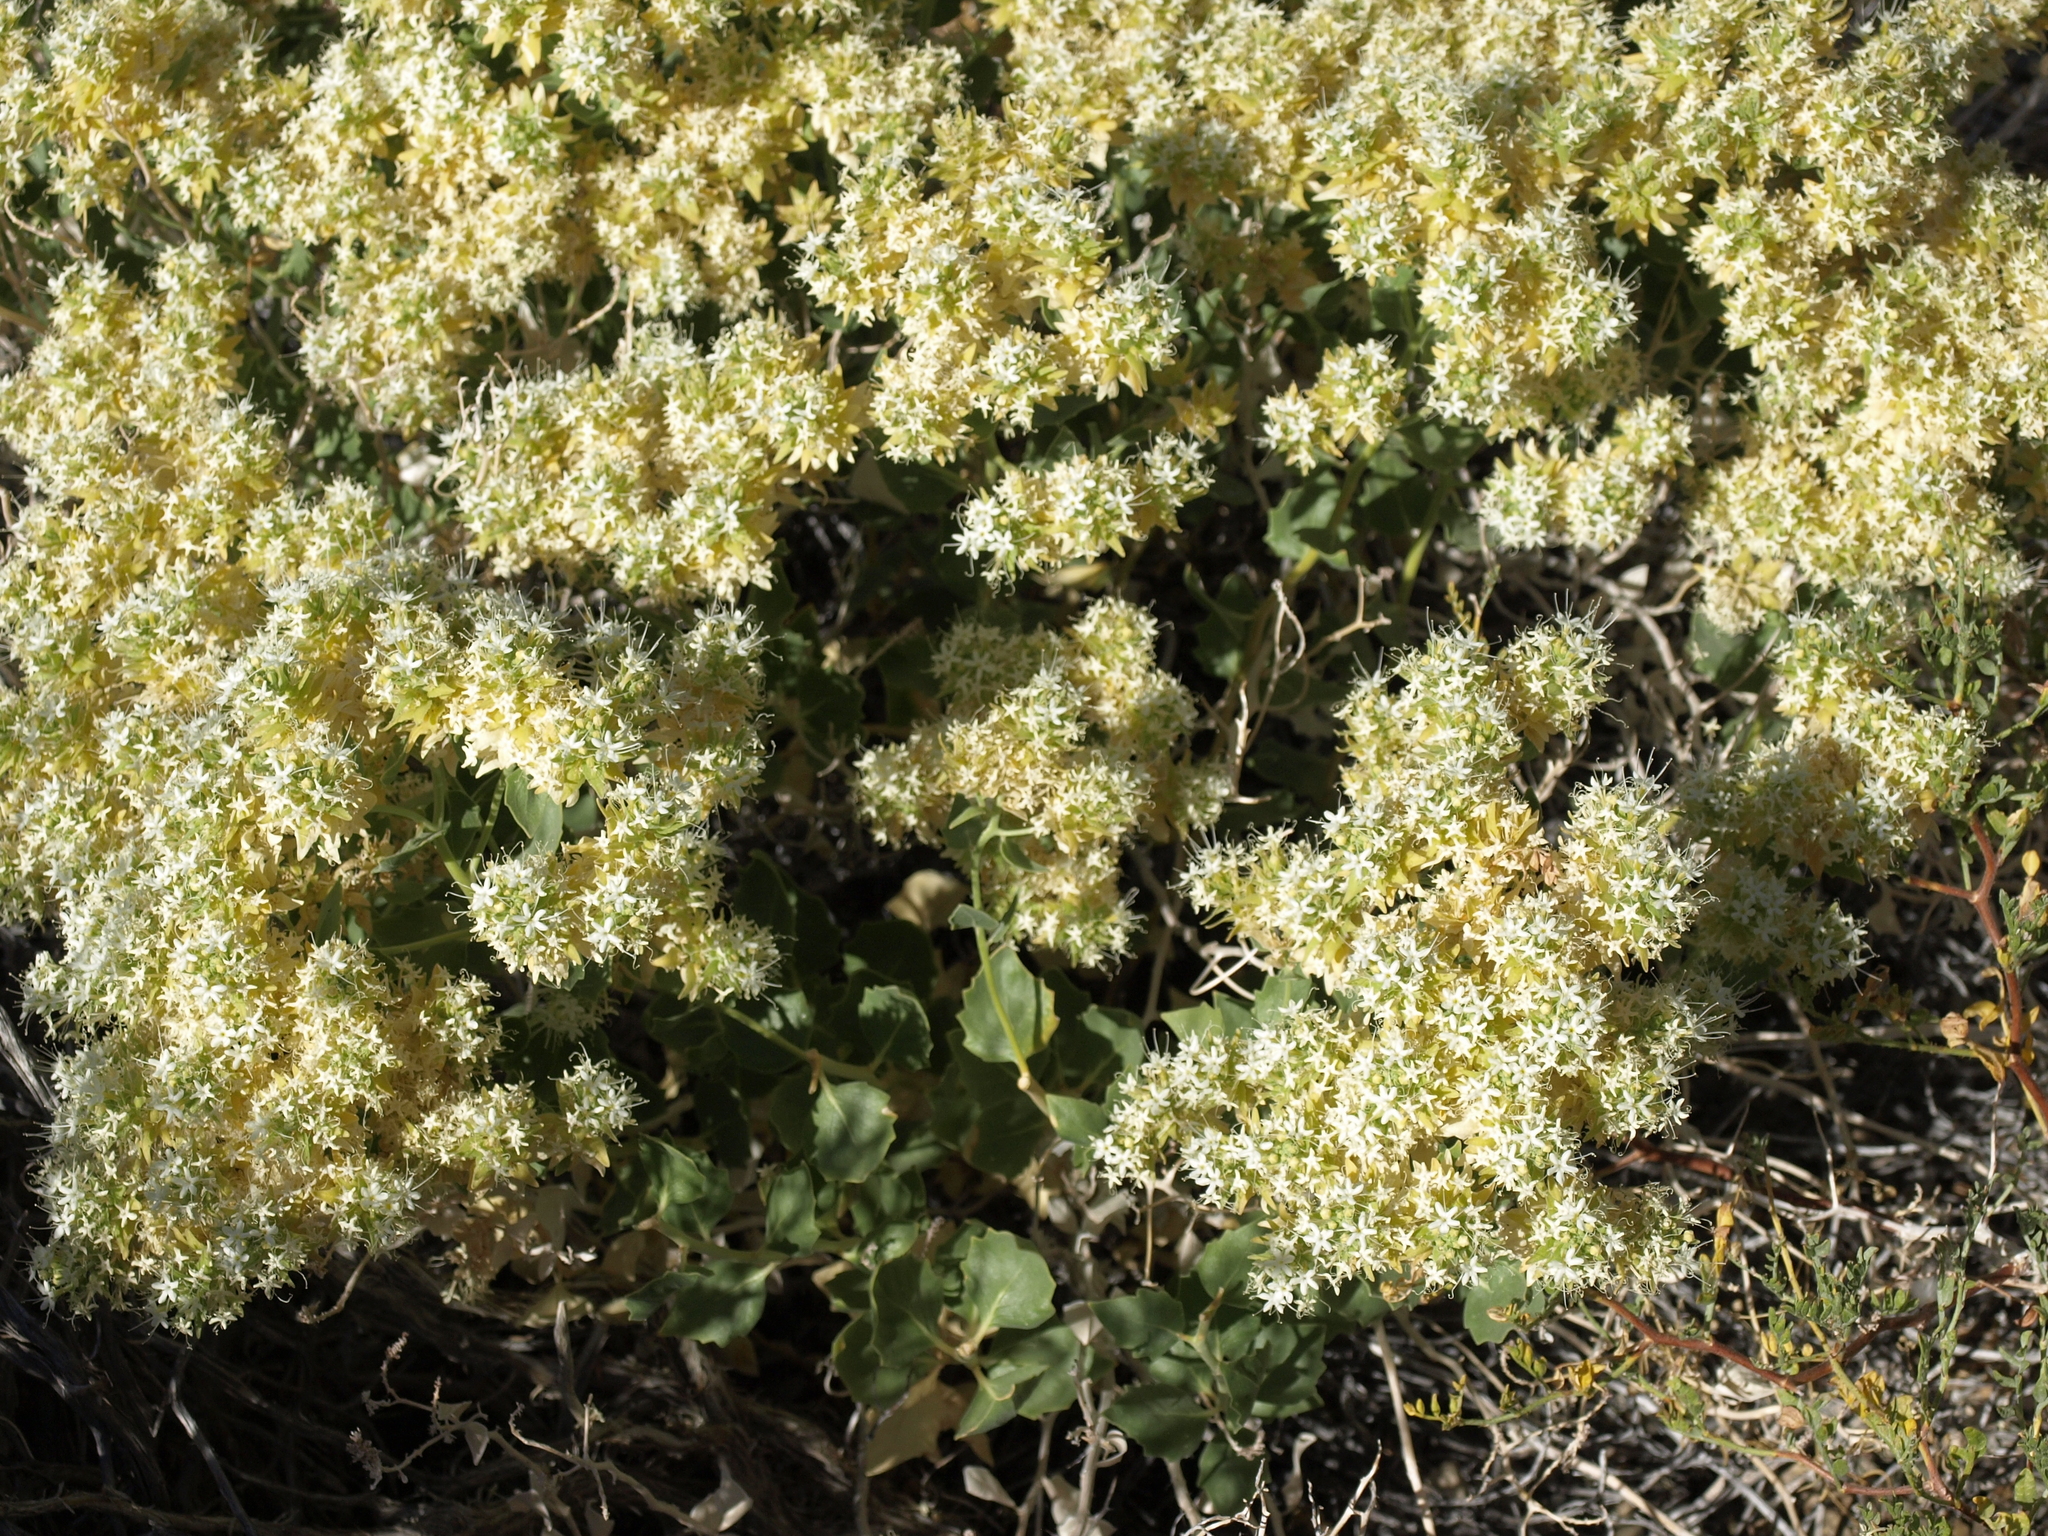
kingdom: Plantae
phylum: Tracheophyta
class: Magnoliopsida
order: Cornales
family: Loasaceae
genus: Petalonyx
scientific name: Petalonyx nitidus
